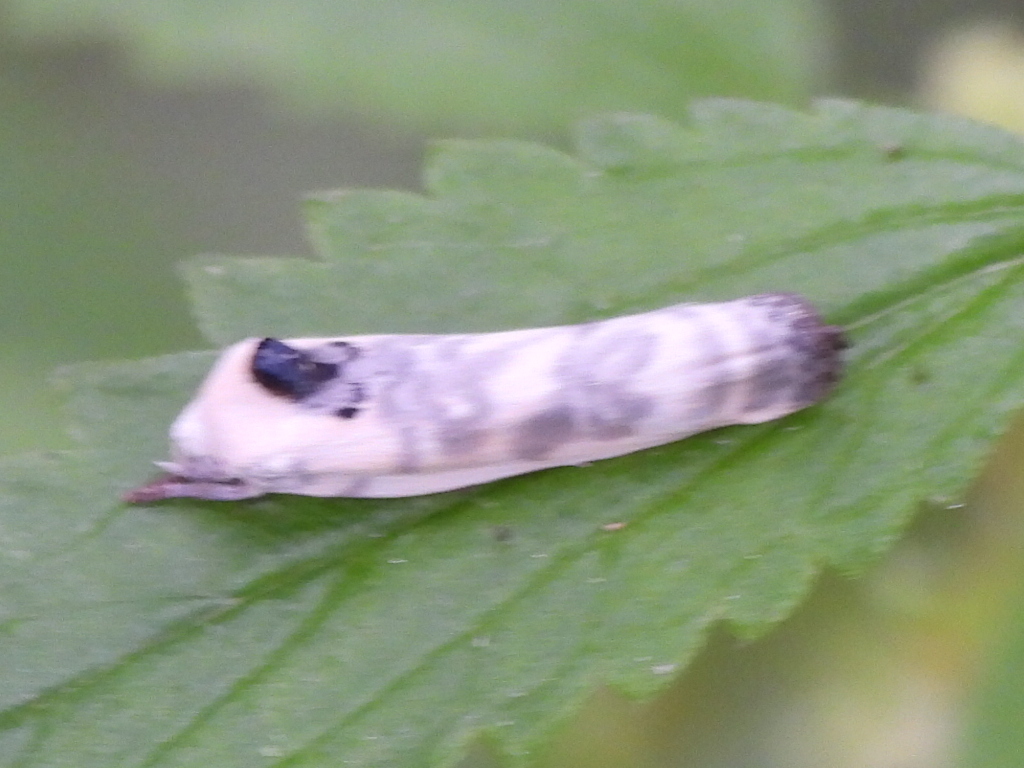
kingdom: Animalia
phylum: Arthropoda
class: Insecta
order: Lepidoptera
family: Depressariidae
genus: Antaeotricha
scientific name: Antaeotricha leucillana
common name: Pale gray bird-dropping moth
